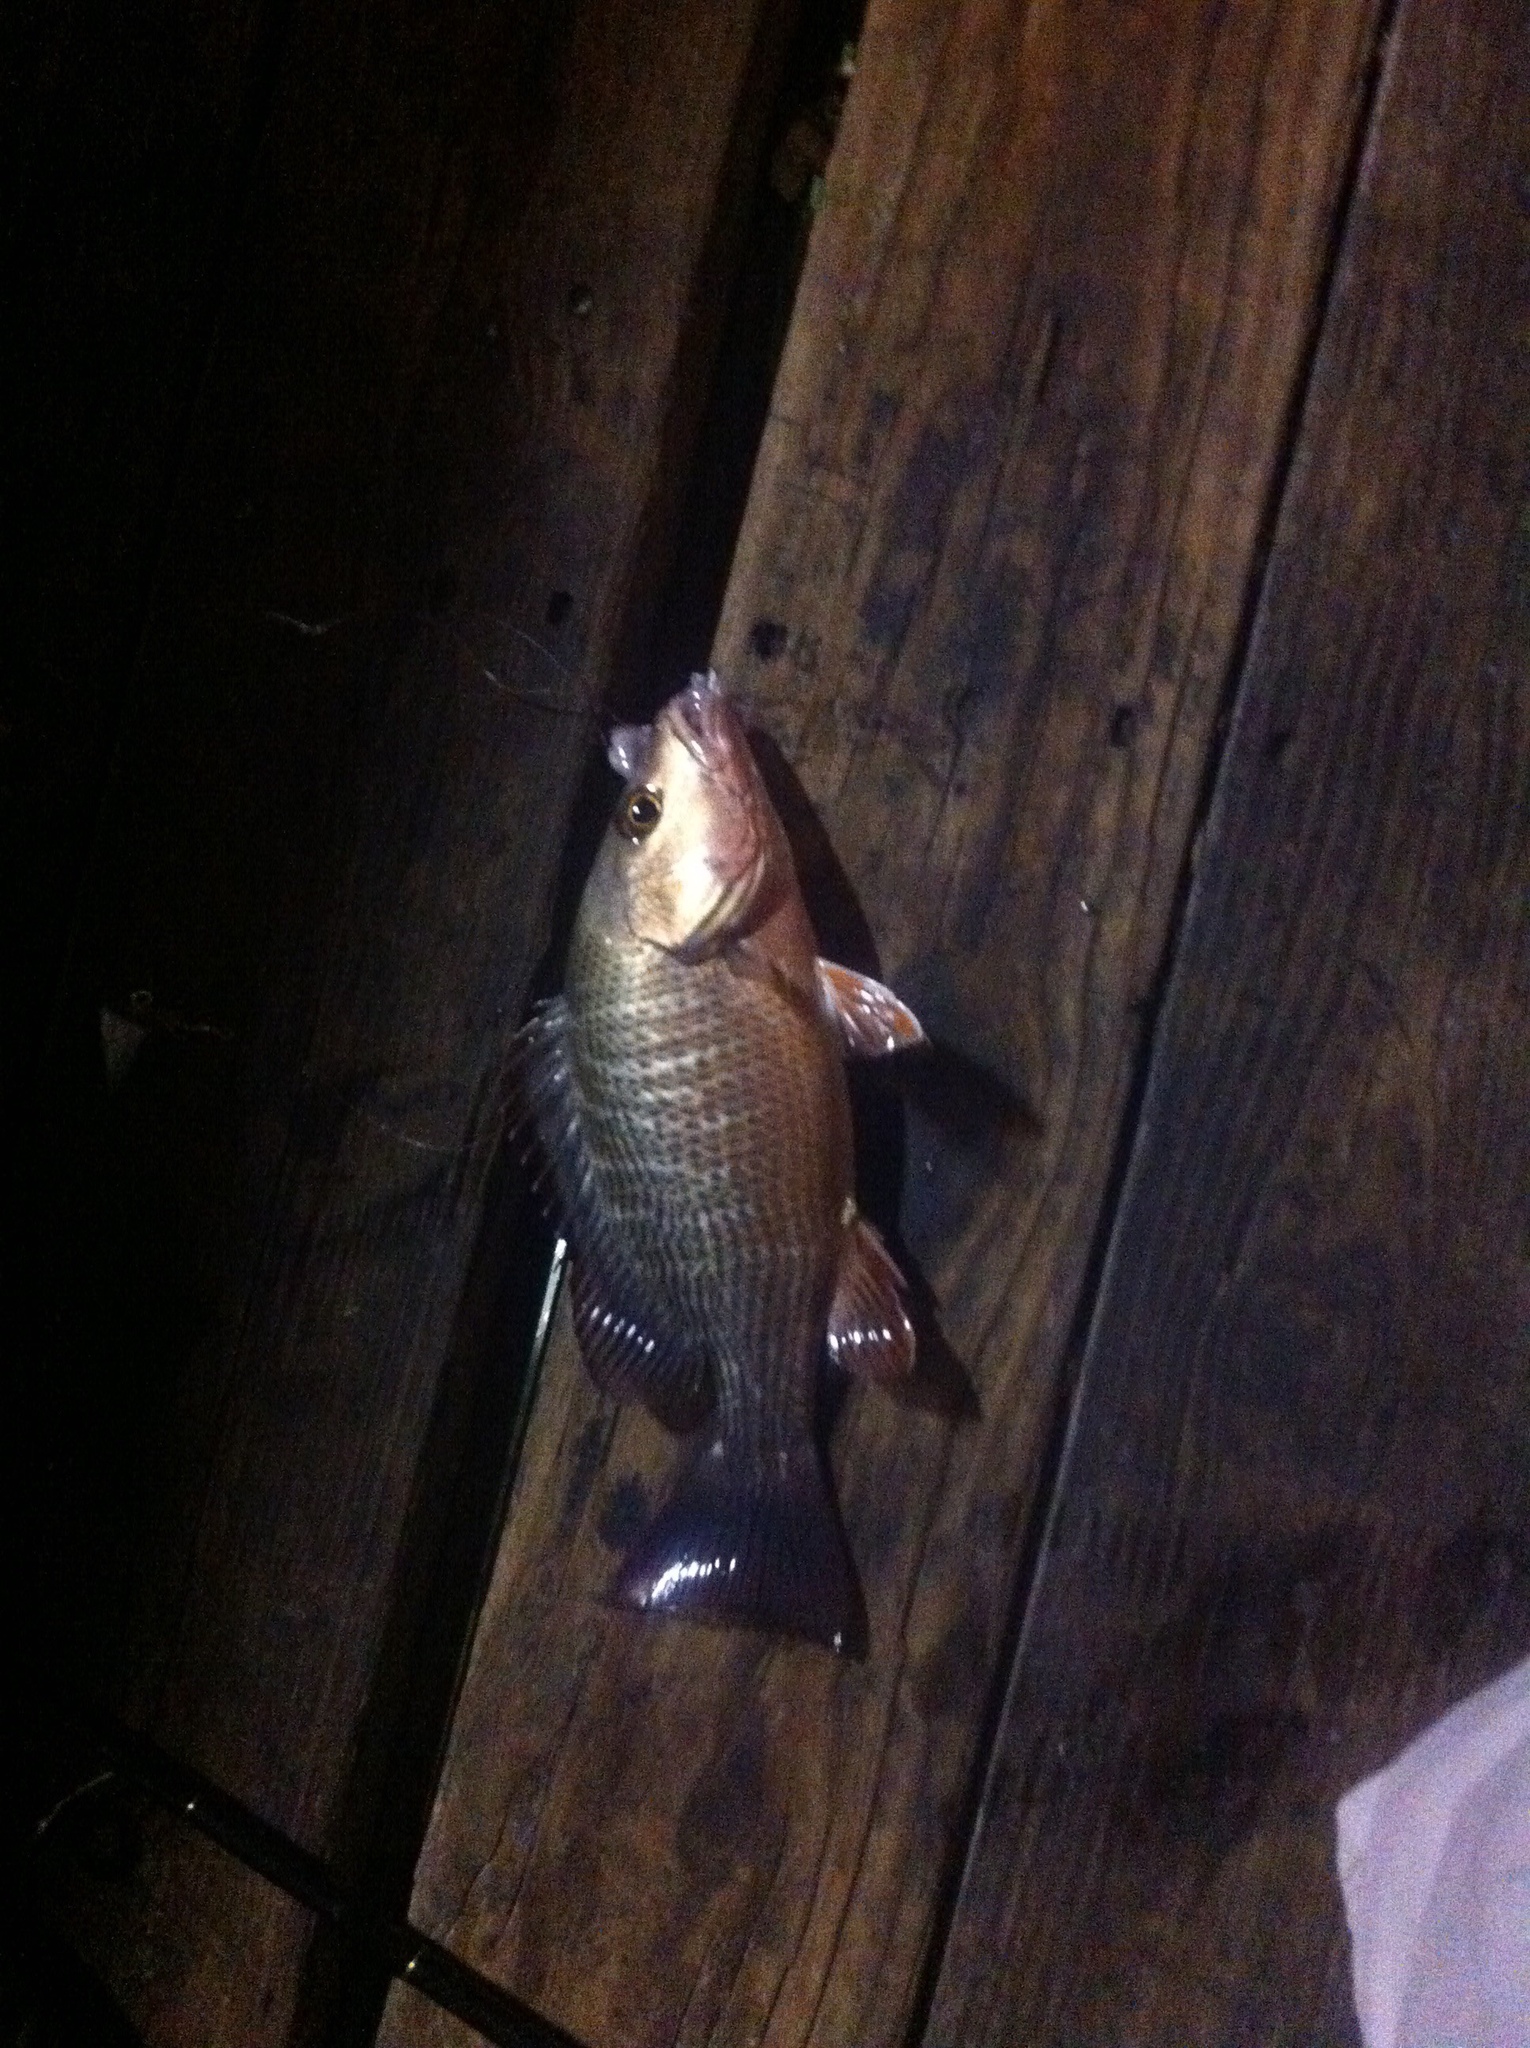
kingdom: Animalia
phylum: Chordata
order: Perciformes
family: Lutjanidae
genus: Lutjanus
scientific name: Lutjanus griseus
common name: Gray snapper
